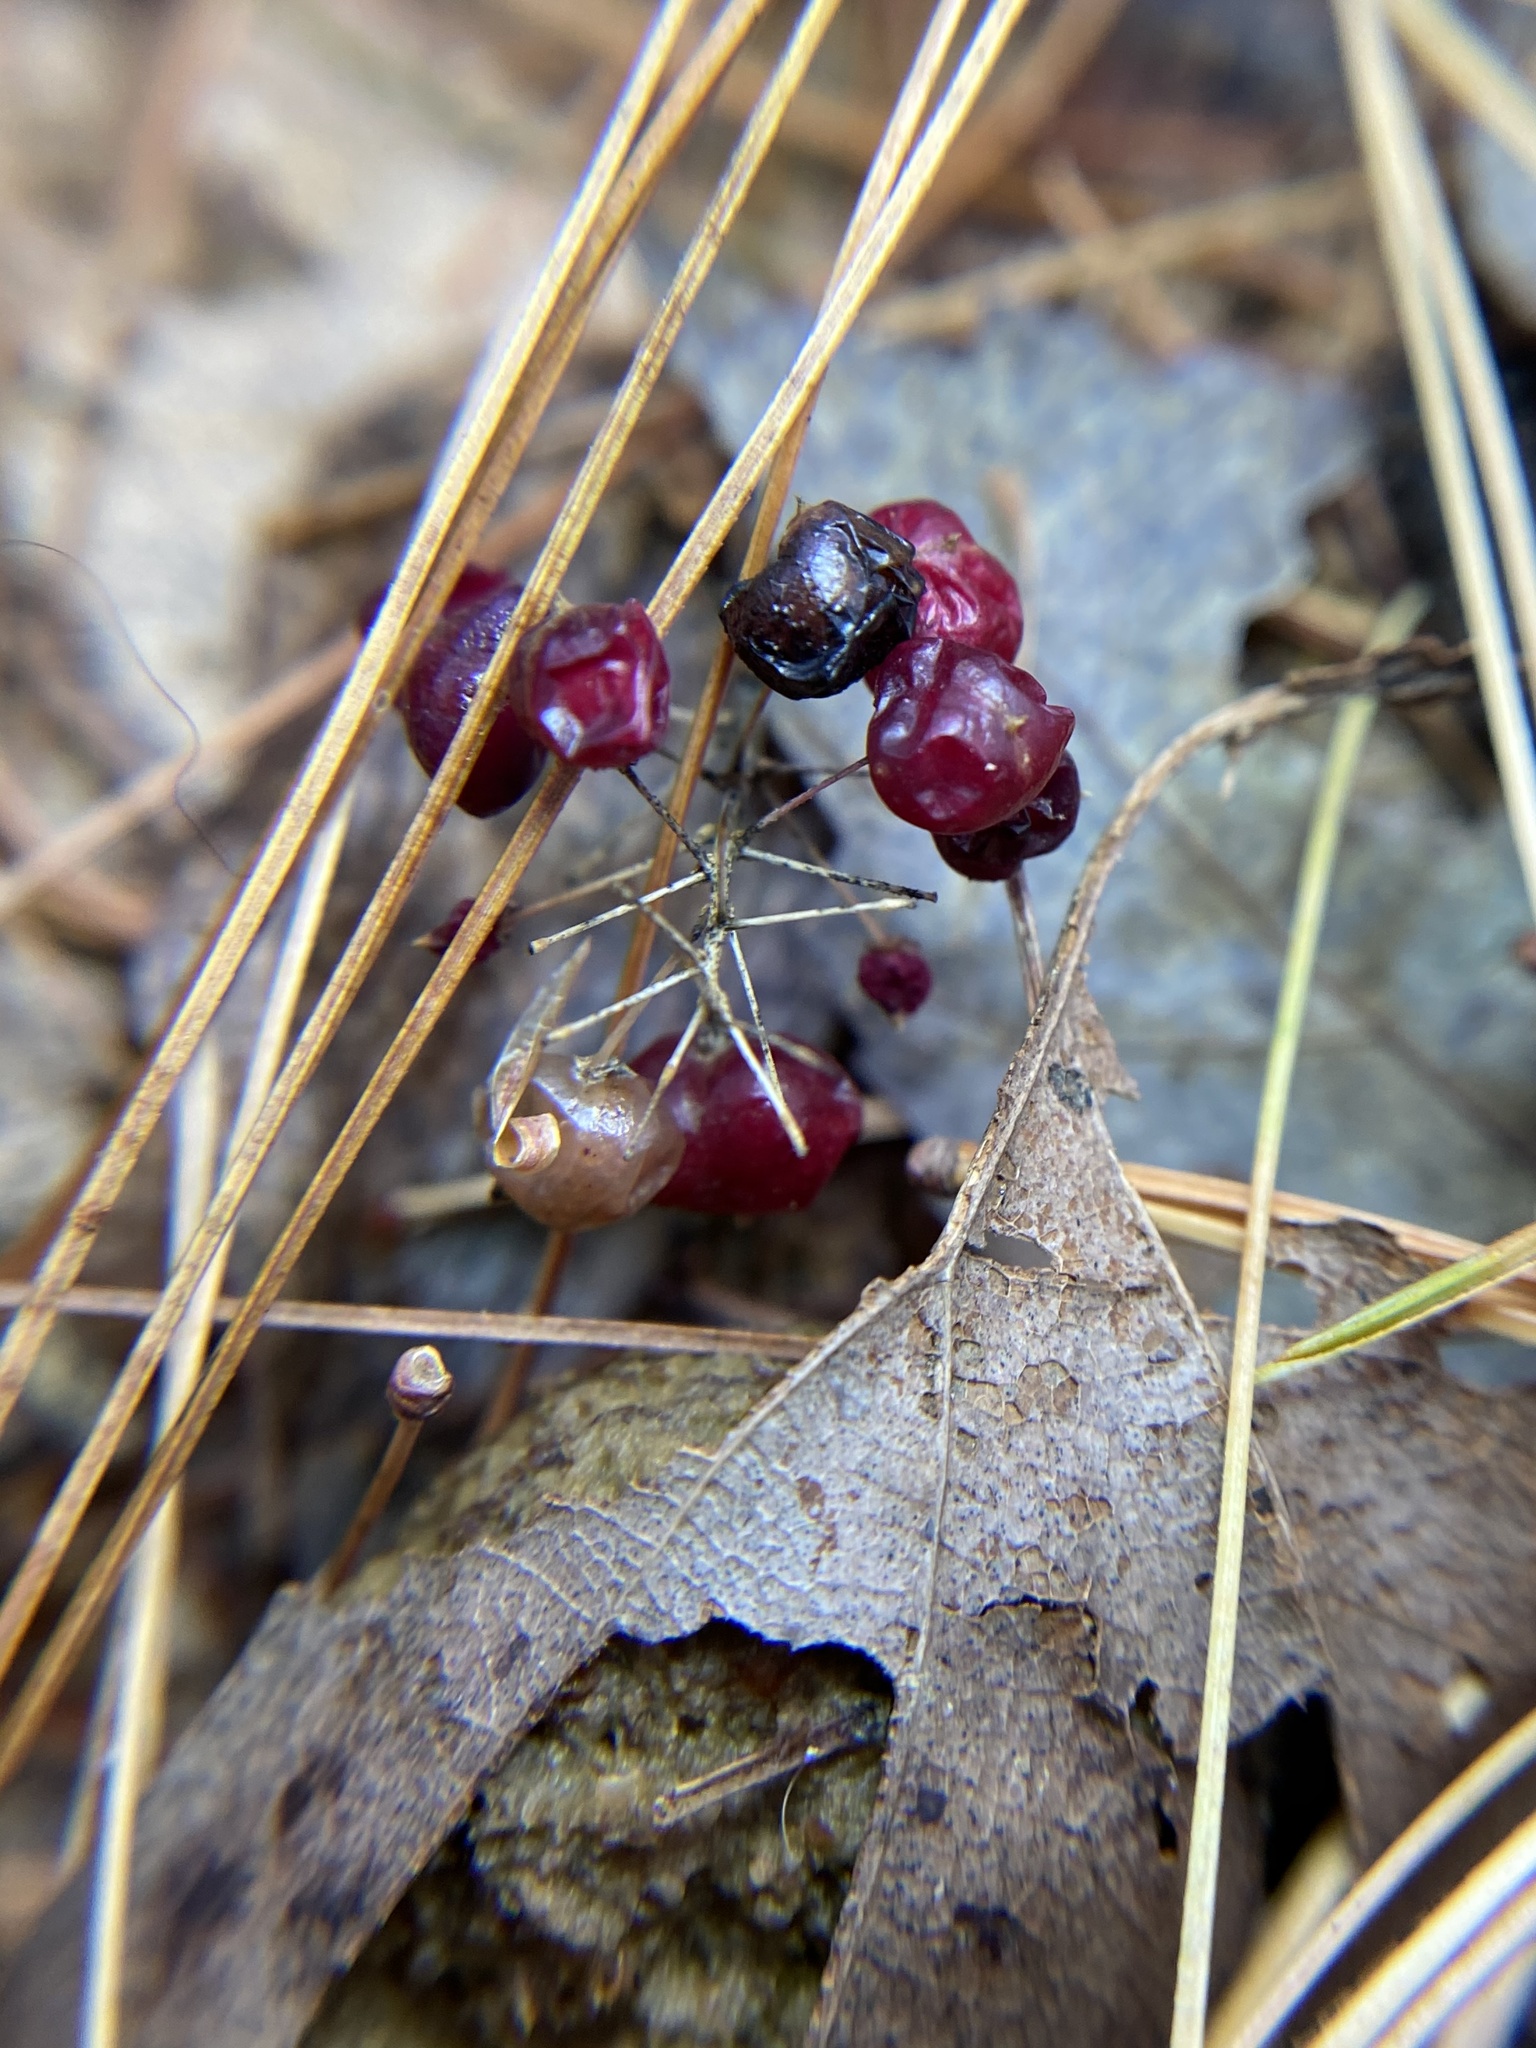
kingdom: Plantae
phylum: Tracheophyta
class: Liliopsida
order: Asparagales
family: Asparagaceae
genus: Maianthemum
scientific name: Maianthemum canadense
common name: False lily-of-the-valley
